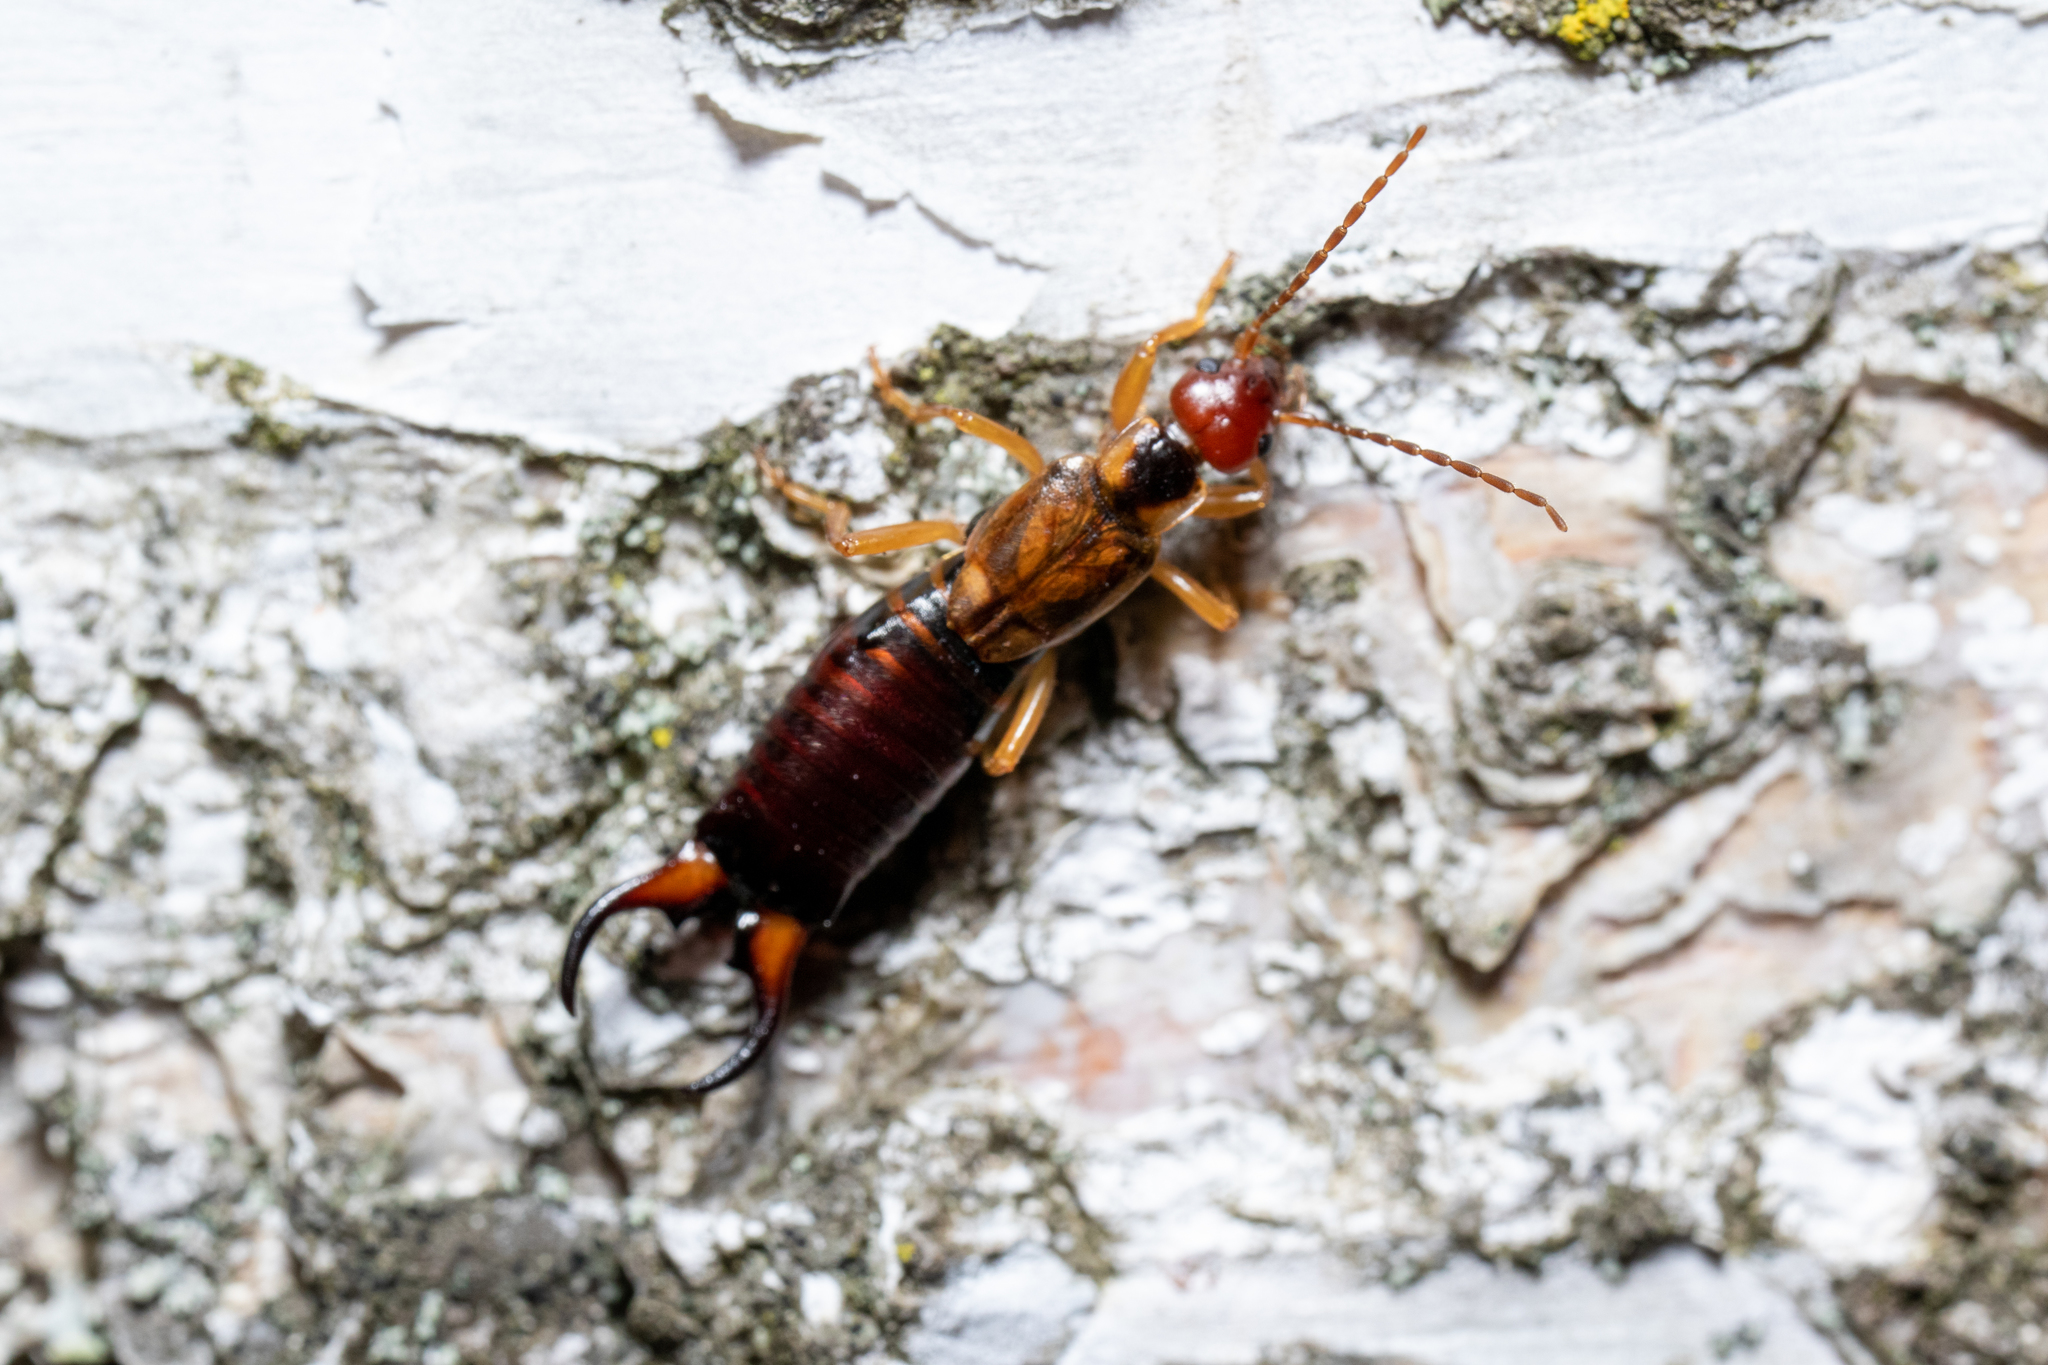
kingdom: Animalia
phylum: Arthropoda
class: Insecta
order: Dermaptera
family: Forficulidae
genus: Forficula
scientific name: Forficula
